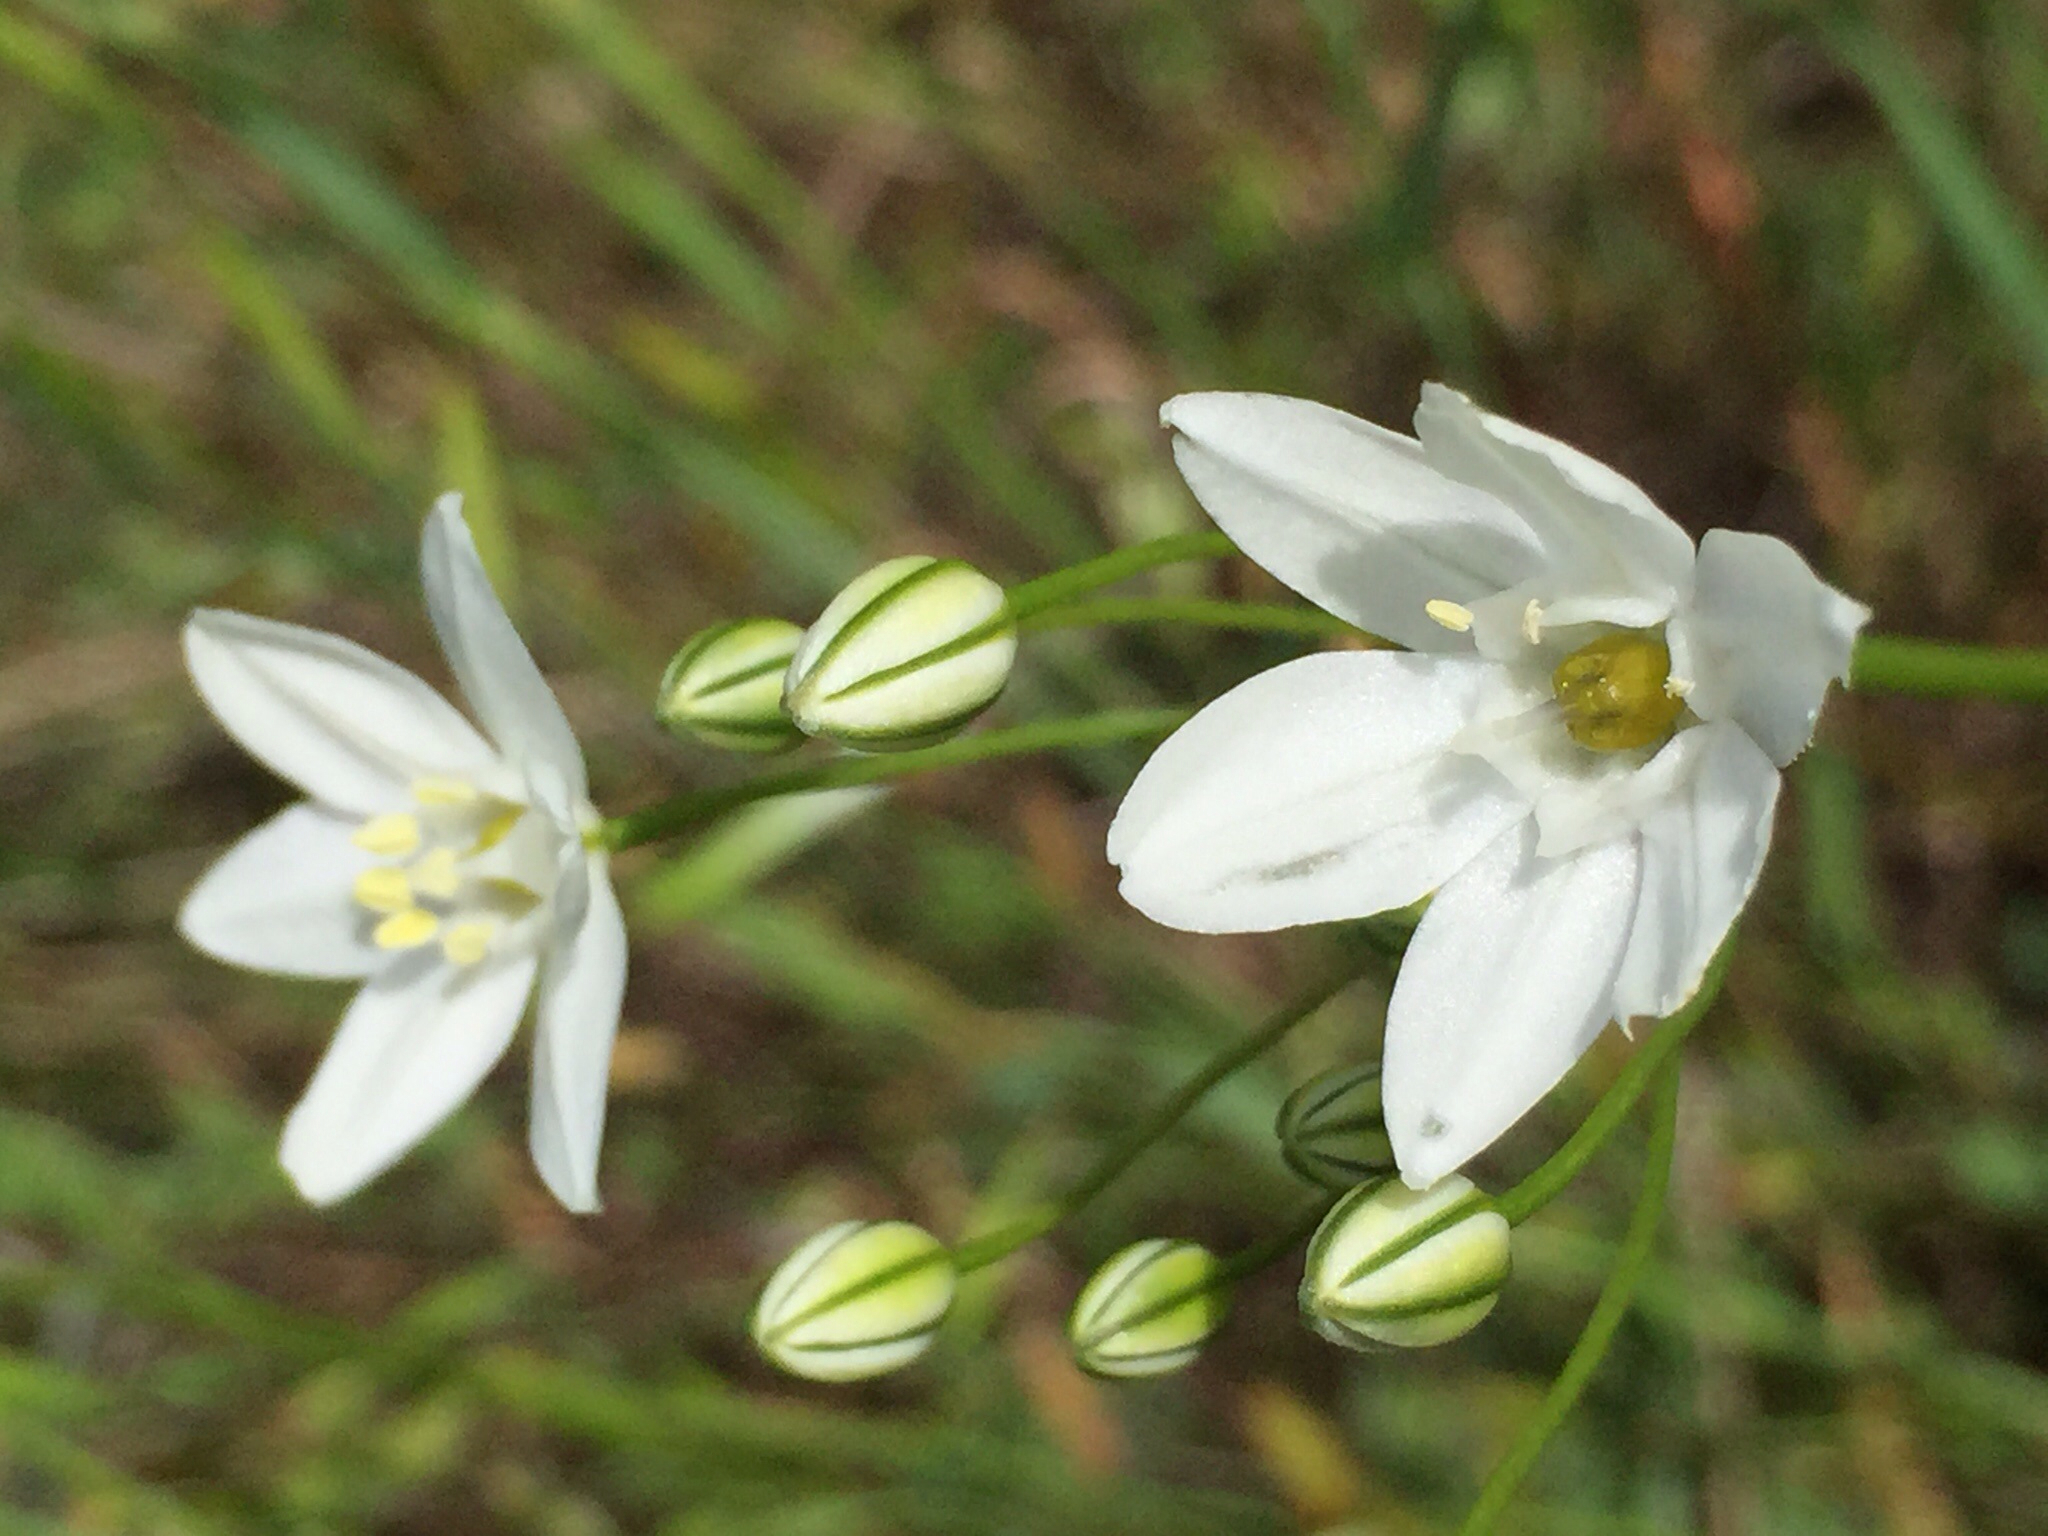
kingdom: Plantae
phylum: Tracheophyta
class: Liliopsida
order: Asparagales
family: Asparagaceae
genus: Triteleia
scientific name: Triteleia hyacinthina
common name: White brodiaea
